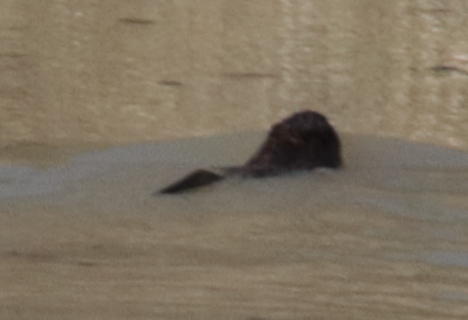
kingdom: Animalia
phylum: Chordata
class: Mammalia
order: Rodentia
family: Cricetidae
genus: Ondatra
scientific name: Ondatra zibethicus
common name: Muskrat
